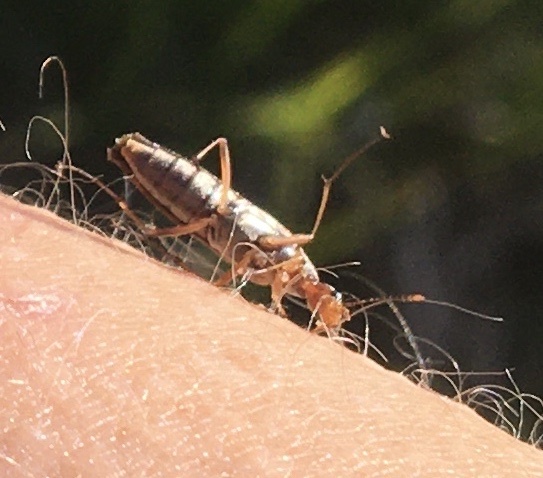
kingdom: Animalia
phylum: Arthropoda
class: Insecta
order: Coleoptera
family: Stenotrachelidae
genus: Cephaloon
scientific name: Cephaloon lepturides
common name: False leptura beetle
